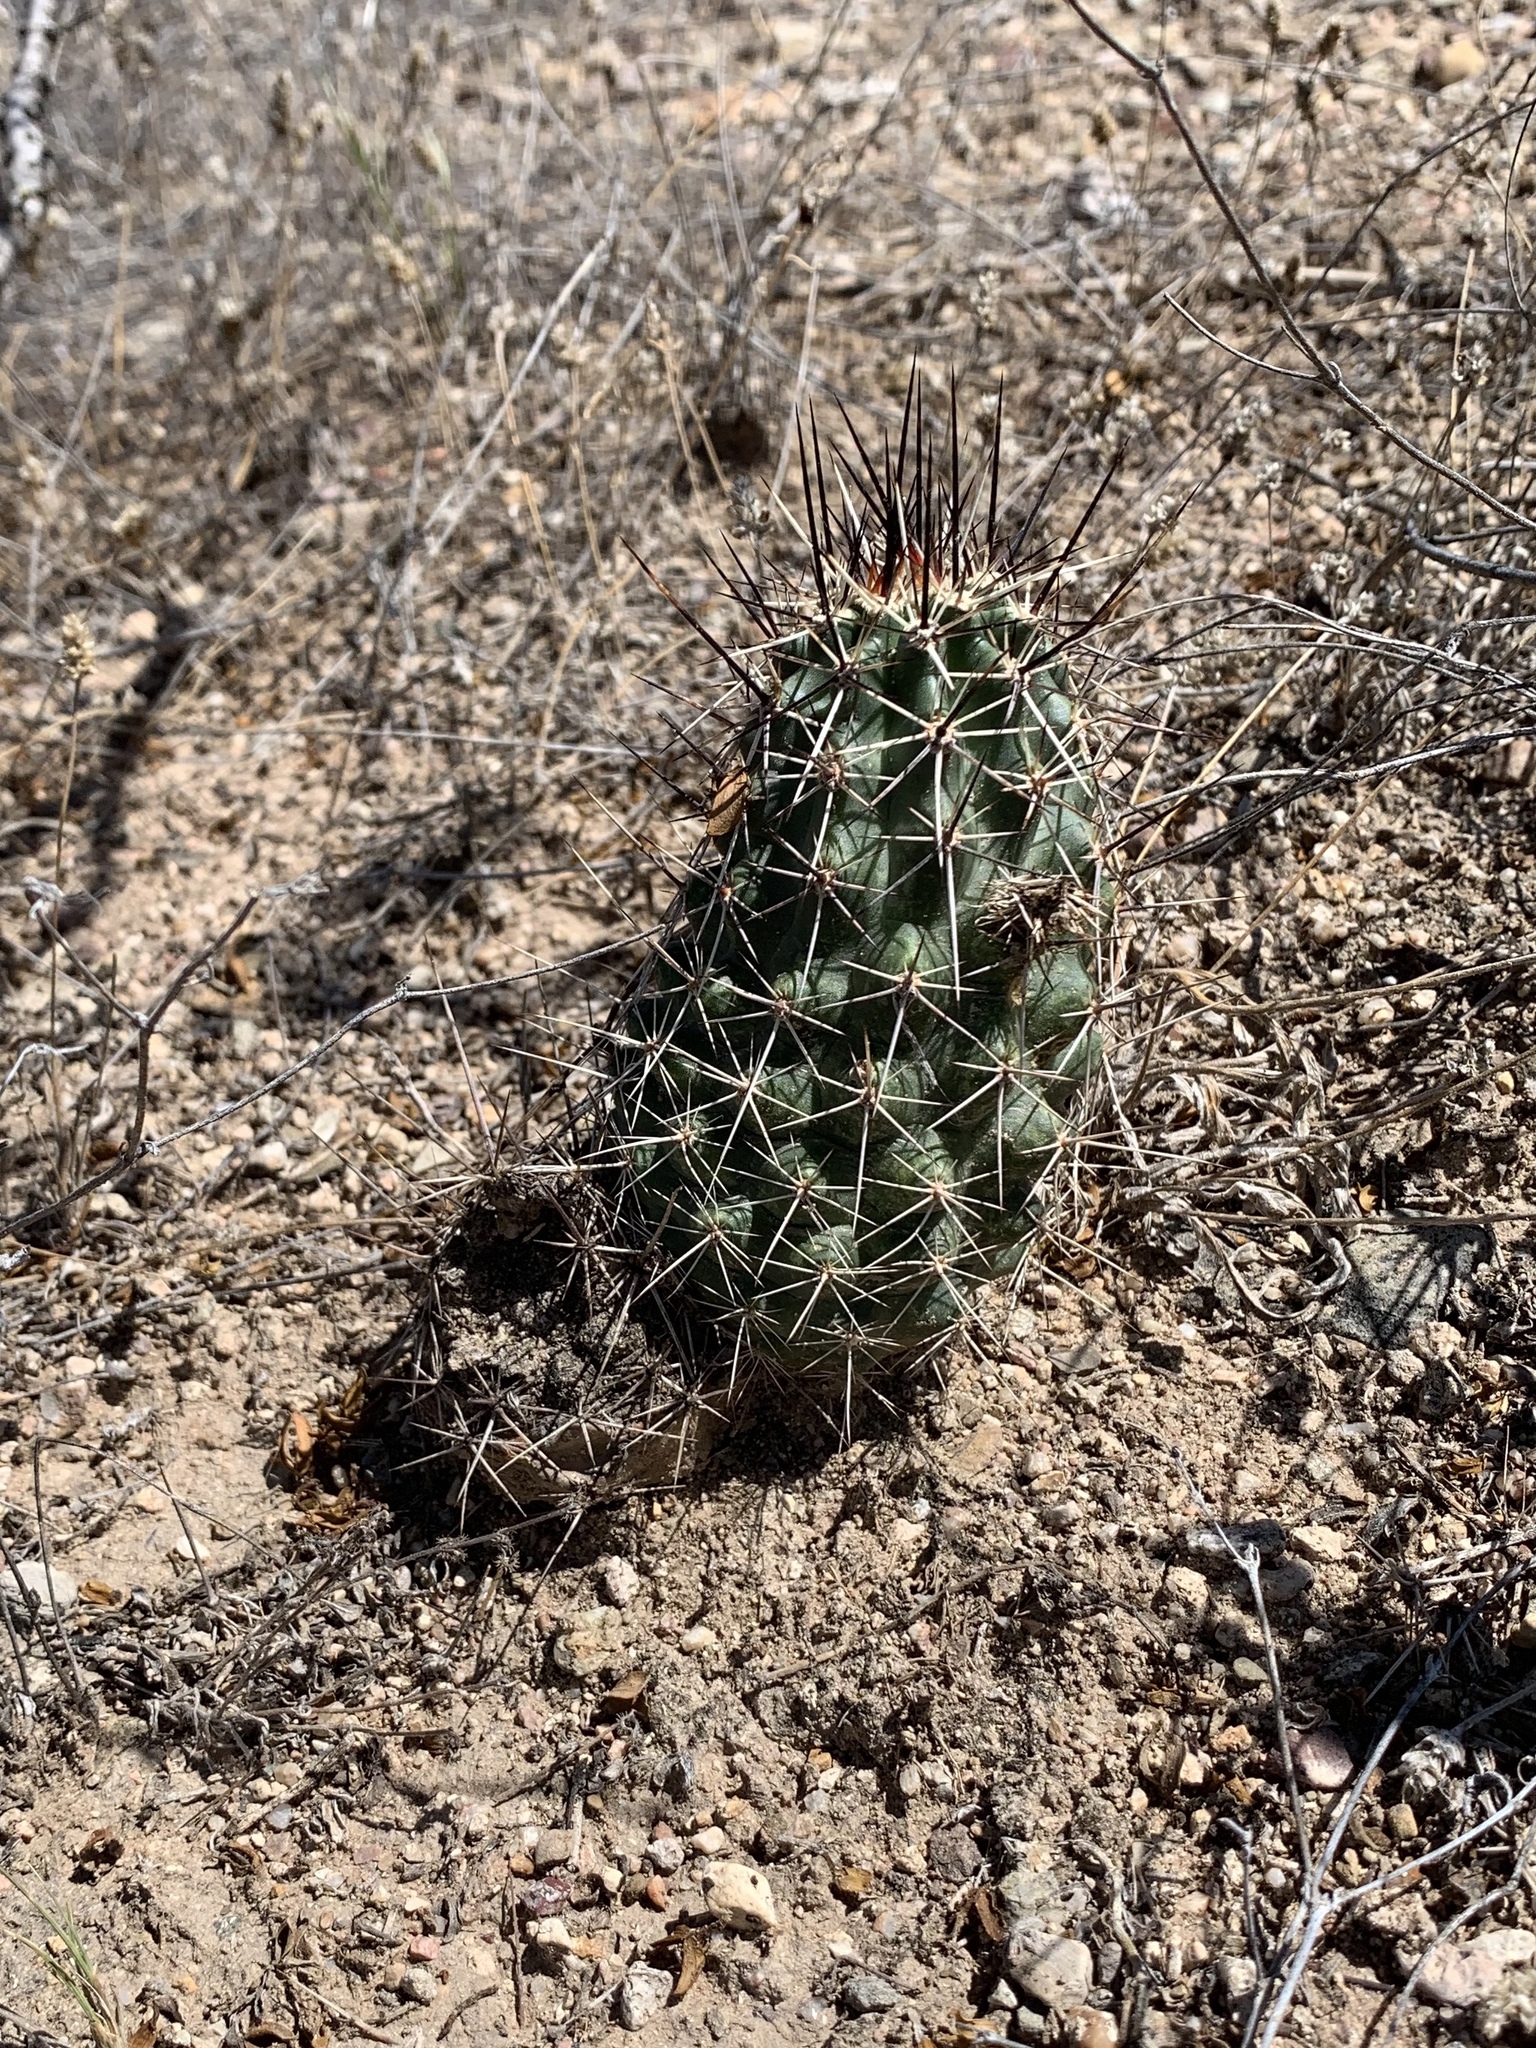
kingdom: Plantae
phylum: Tracheophyta
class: Magnoliopsida
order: Caryophyllales
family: Cactaceae
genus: Echinocereus
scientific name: Echinocereus fasciculatus
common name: Bundle hedgehog
